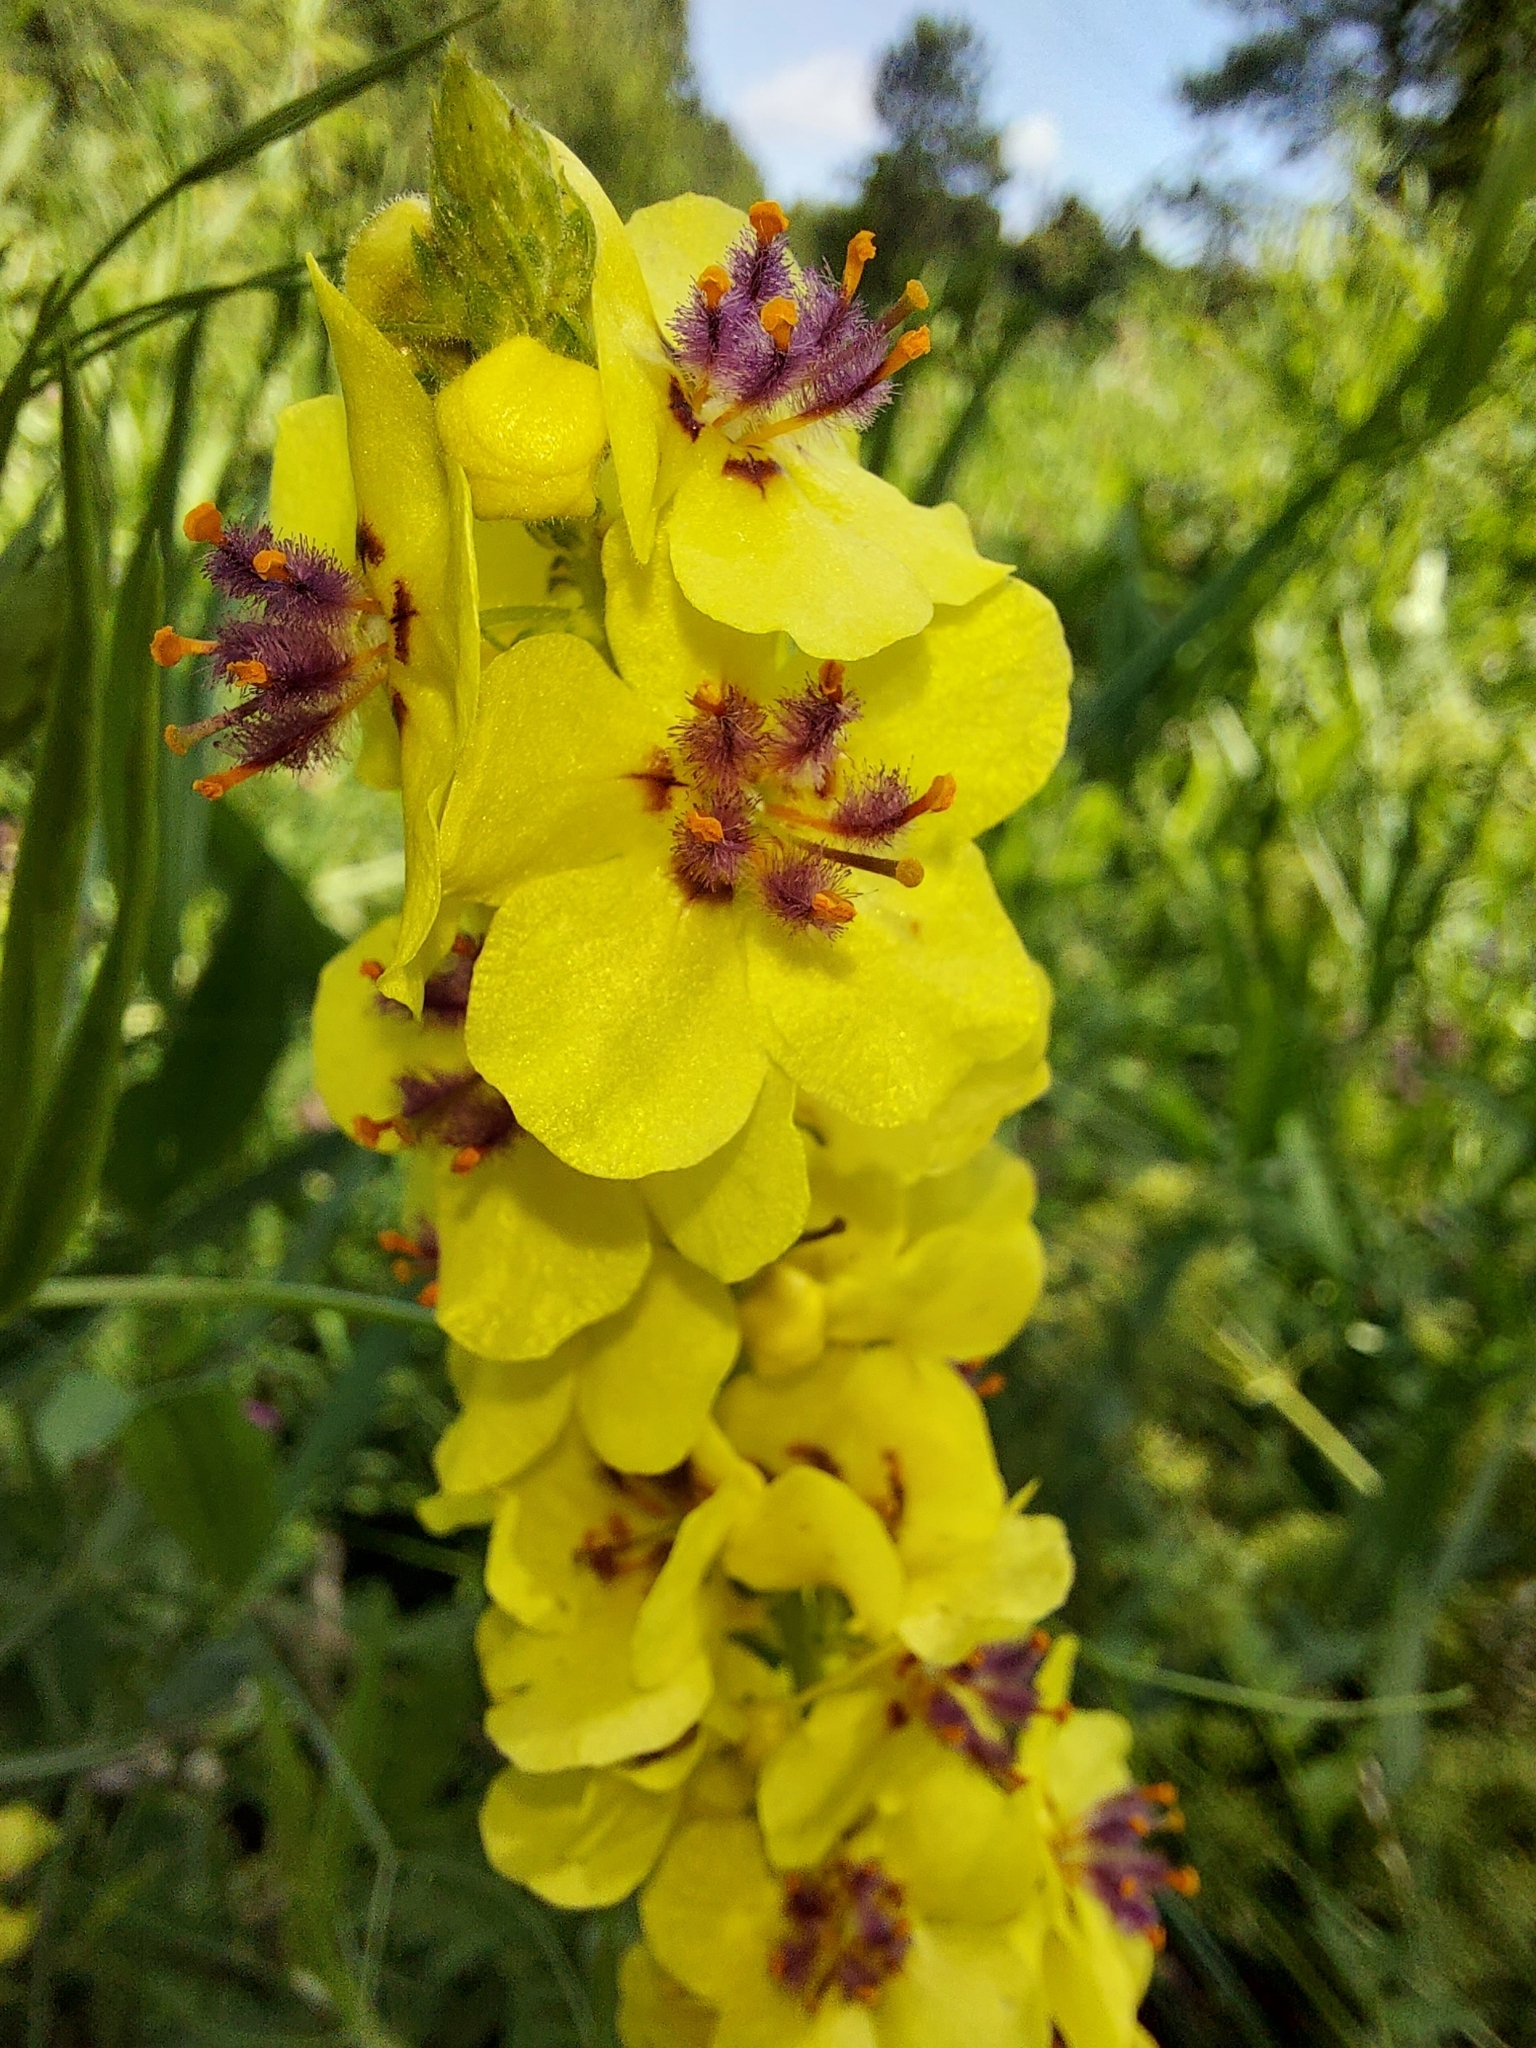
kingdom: Plantae
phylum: Tracheophyta
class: Magnoliopsida
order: Lamiales
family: Scrophulariaceae
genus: Verbascum
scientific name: Verbascum nigrum
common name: Dark mullein
